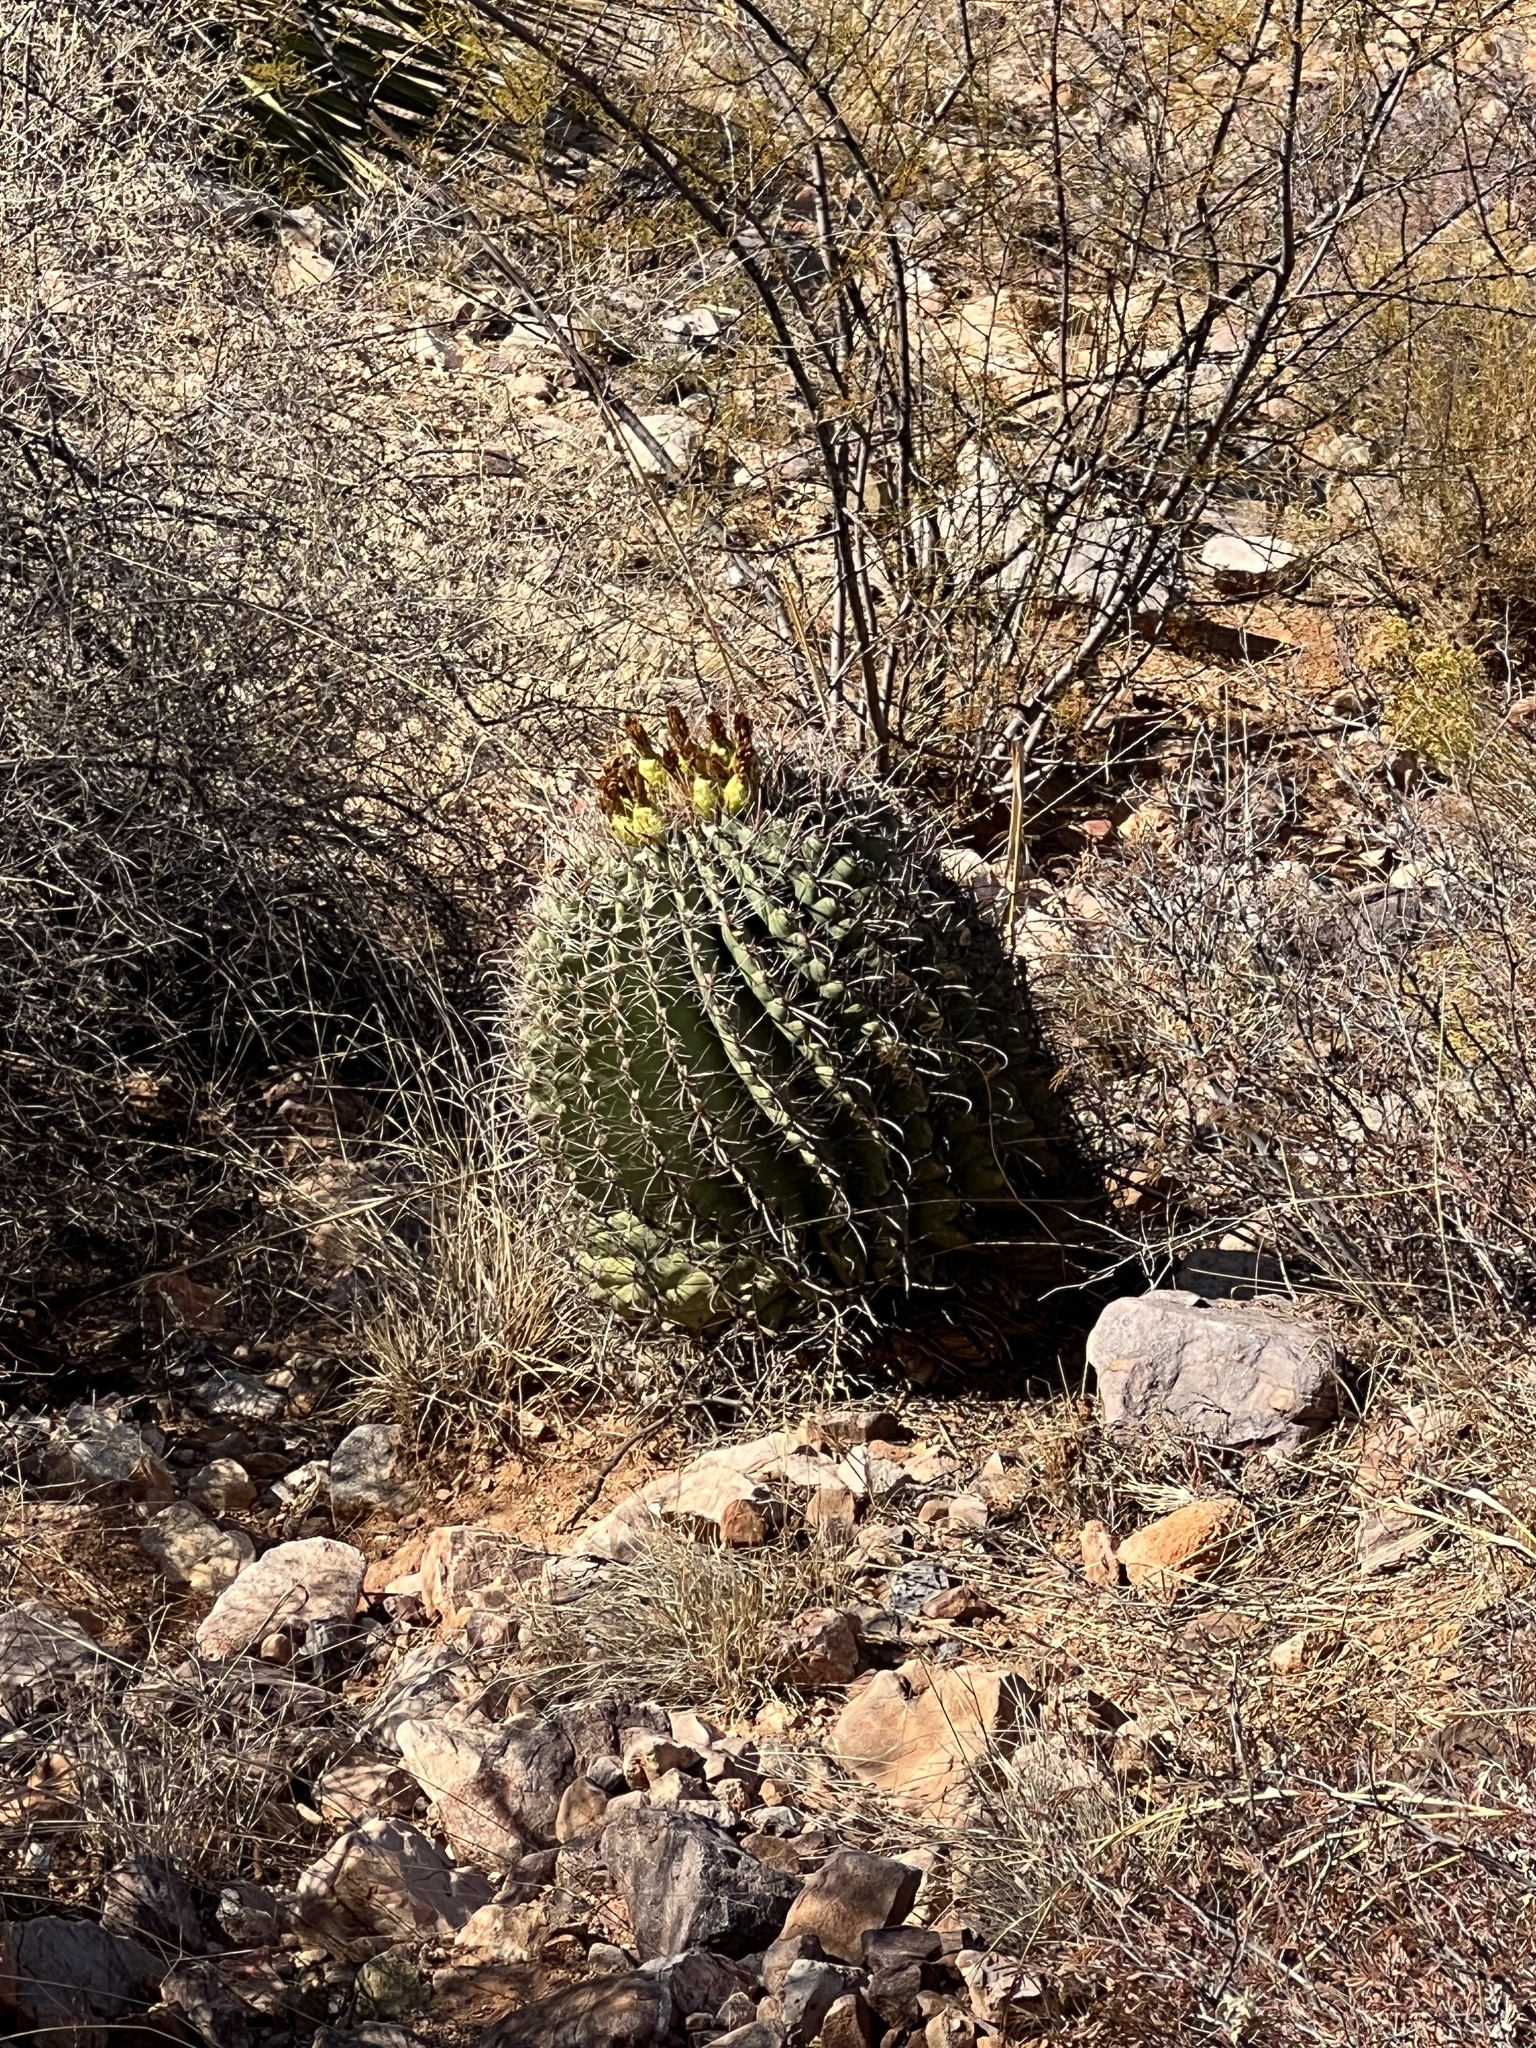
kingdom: Plantae
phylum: Tracheophyta
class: Magnoliopsida
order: Caryophyllales
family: Cactaceae
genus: Ferocactus
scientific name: Ferocactus wislizeni
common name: Candy barrel cactus
